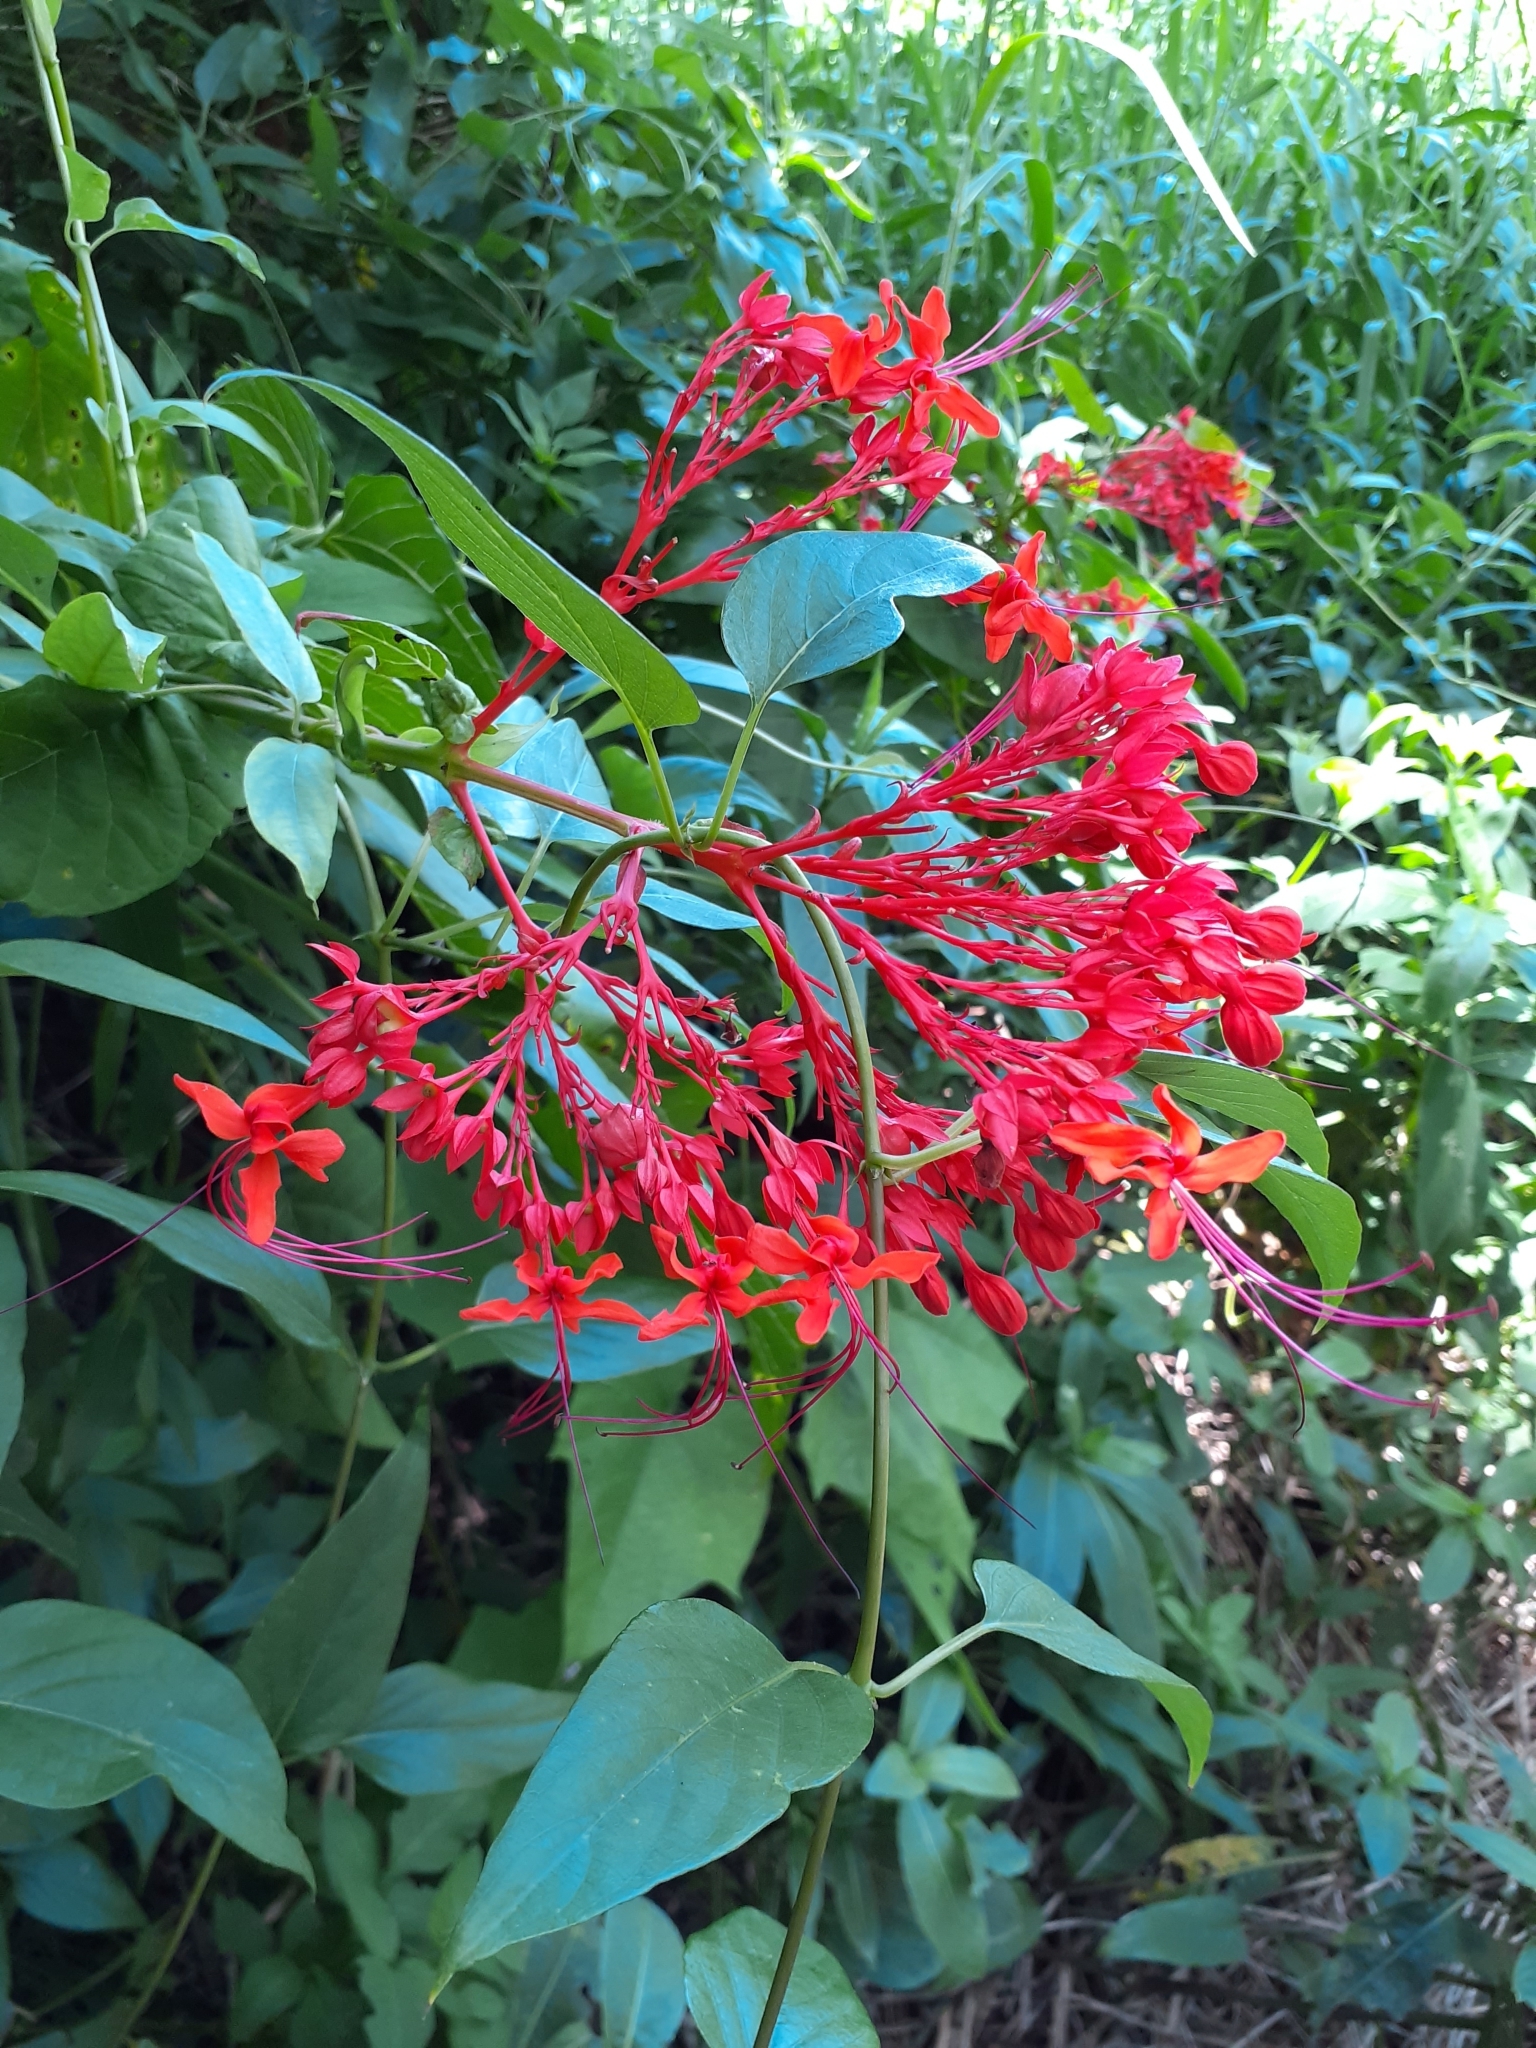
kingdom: Plantae
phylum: Tracheophyta
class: Magnoliopsida
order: Lamiales
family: Lamiaceae
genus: Clerodendrum
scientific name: Clerodendrum japonicum
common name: Japanese glorybower
